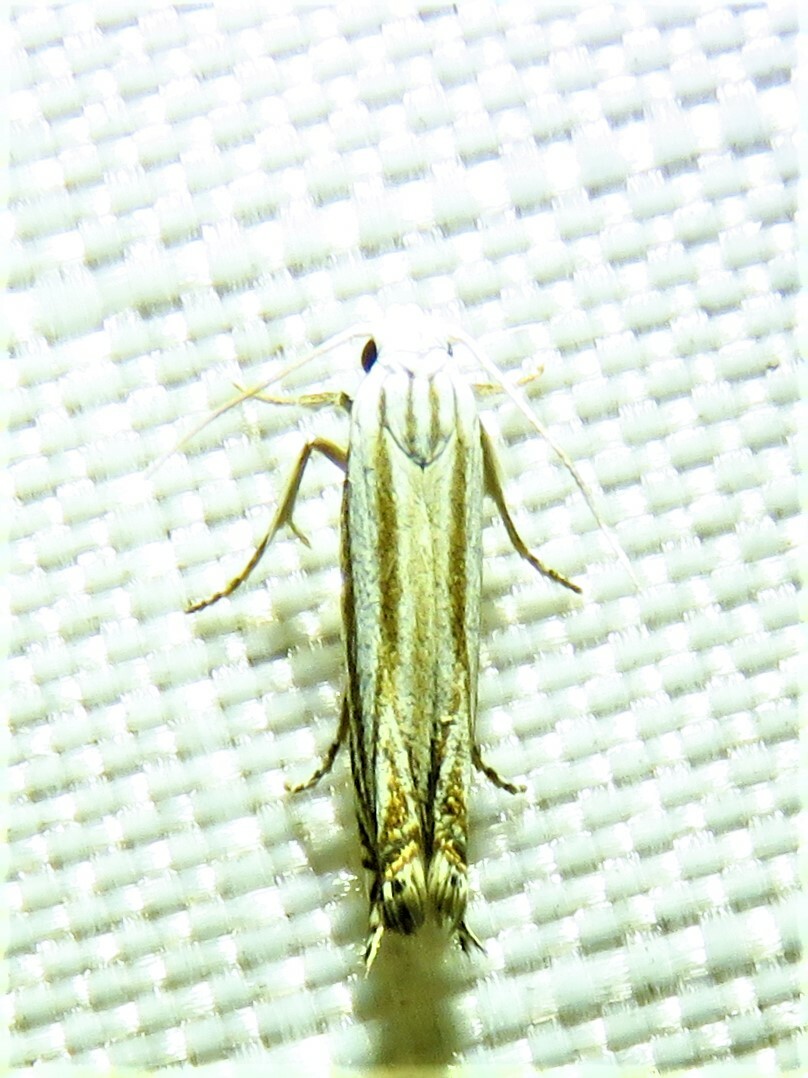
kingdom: Animalia
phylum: Arthropoda
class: Insecta
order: Lepidoptera
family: Gelechiidae
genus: Polyhymno
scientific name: Polyhymno luteostrigella
